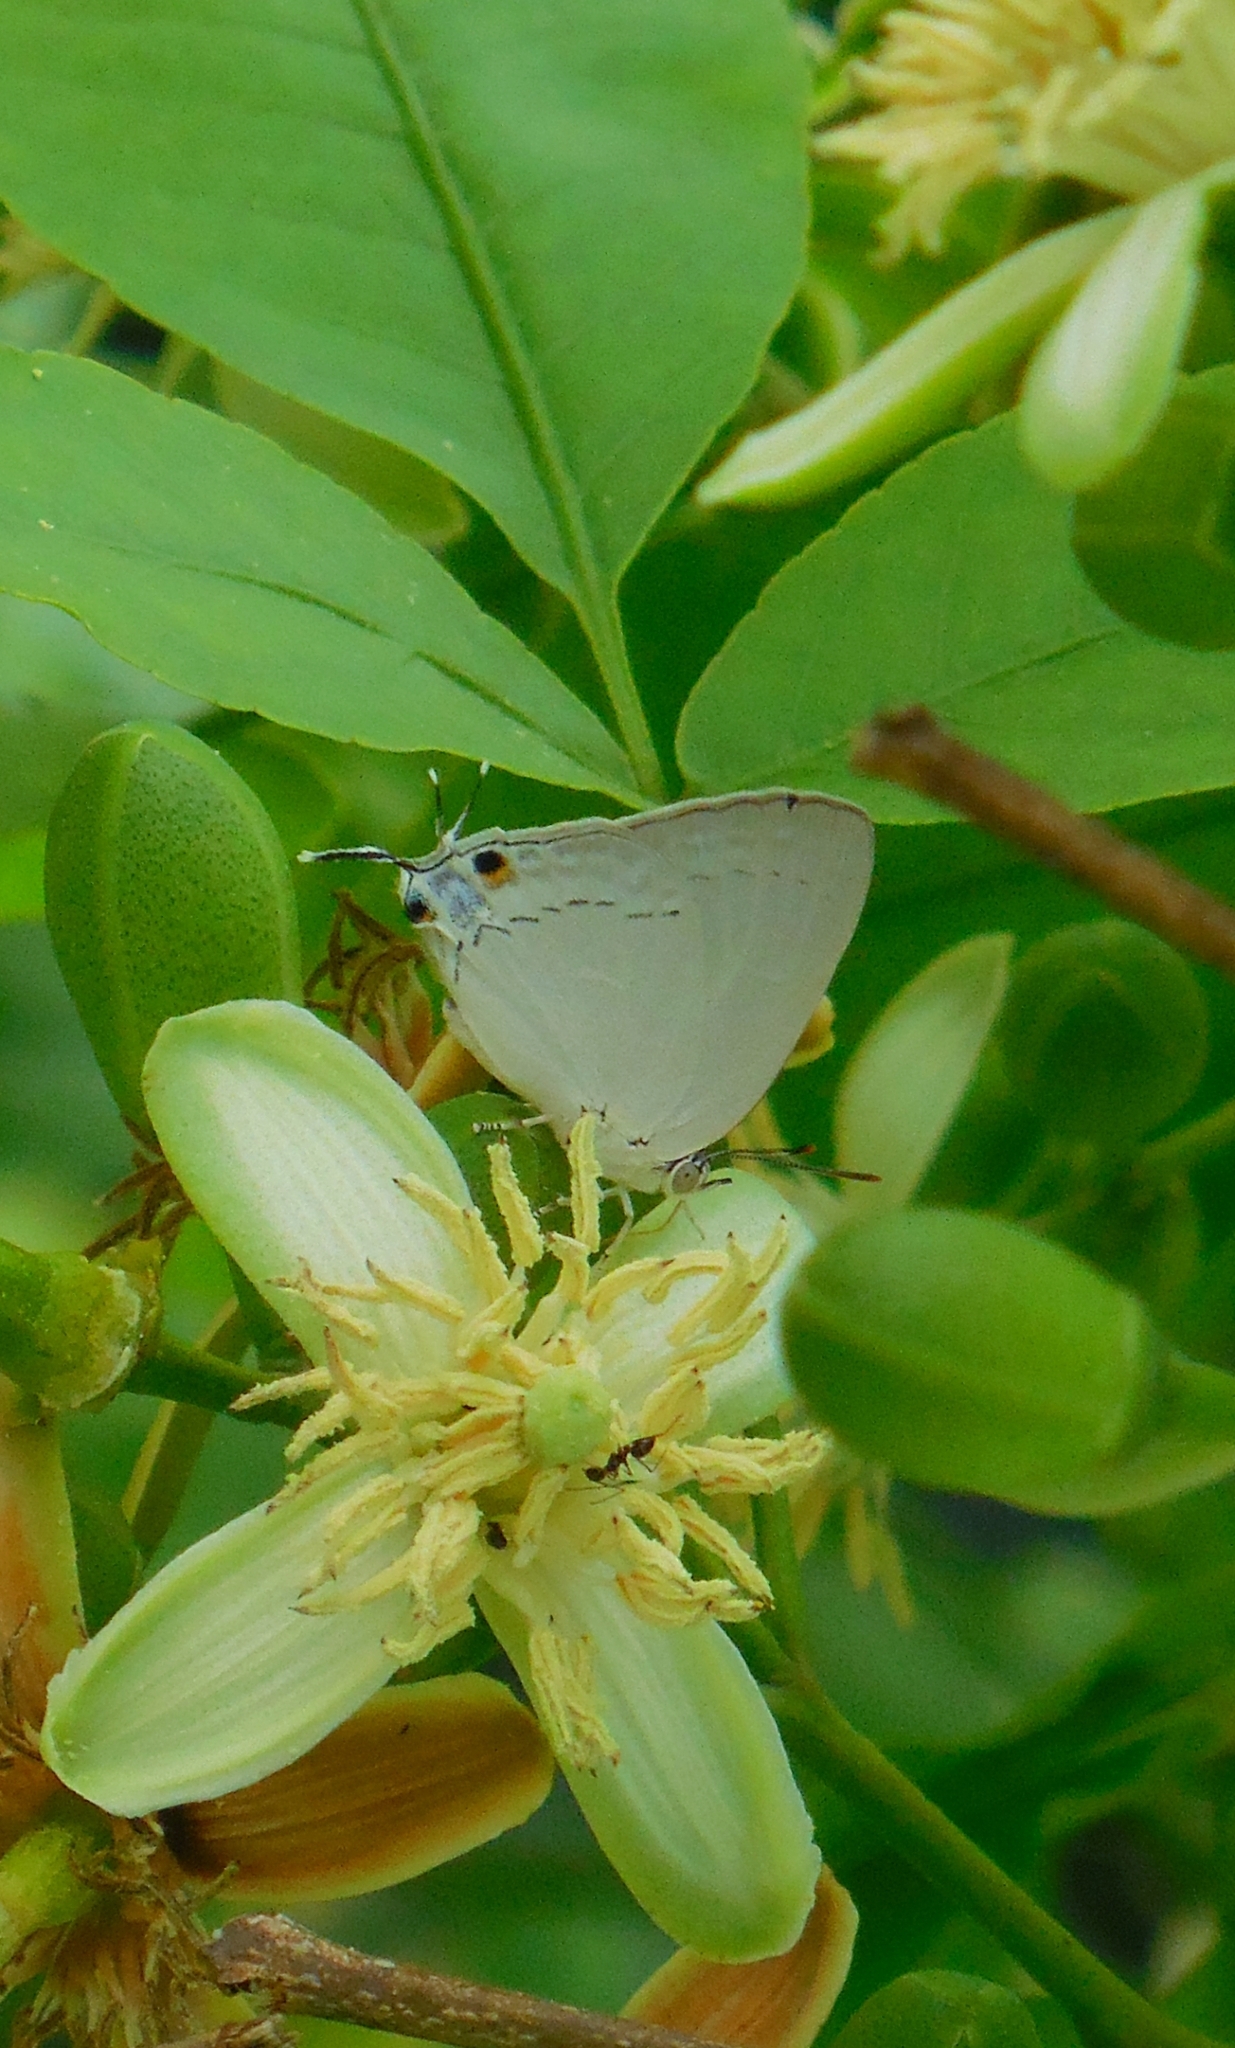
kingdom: Animalia
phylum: Arthropoda
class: Insecta
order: Lepidoptera
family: Lycaenidae
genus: Tajuria
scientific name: Tajuria jehana
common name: Plains blue royal
